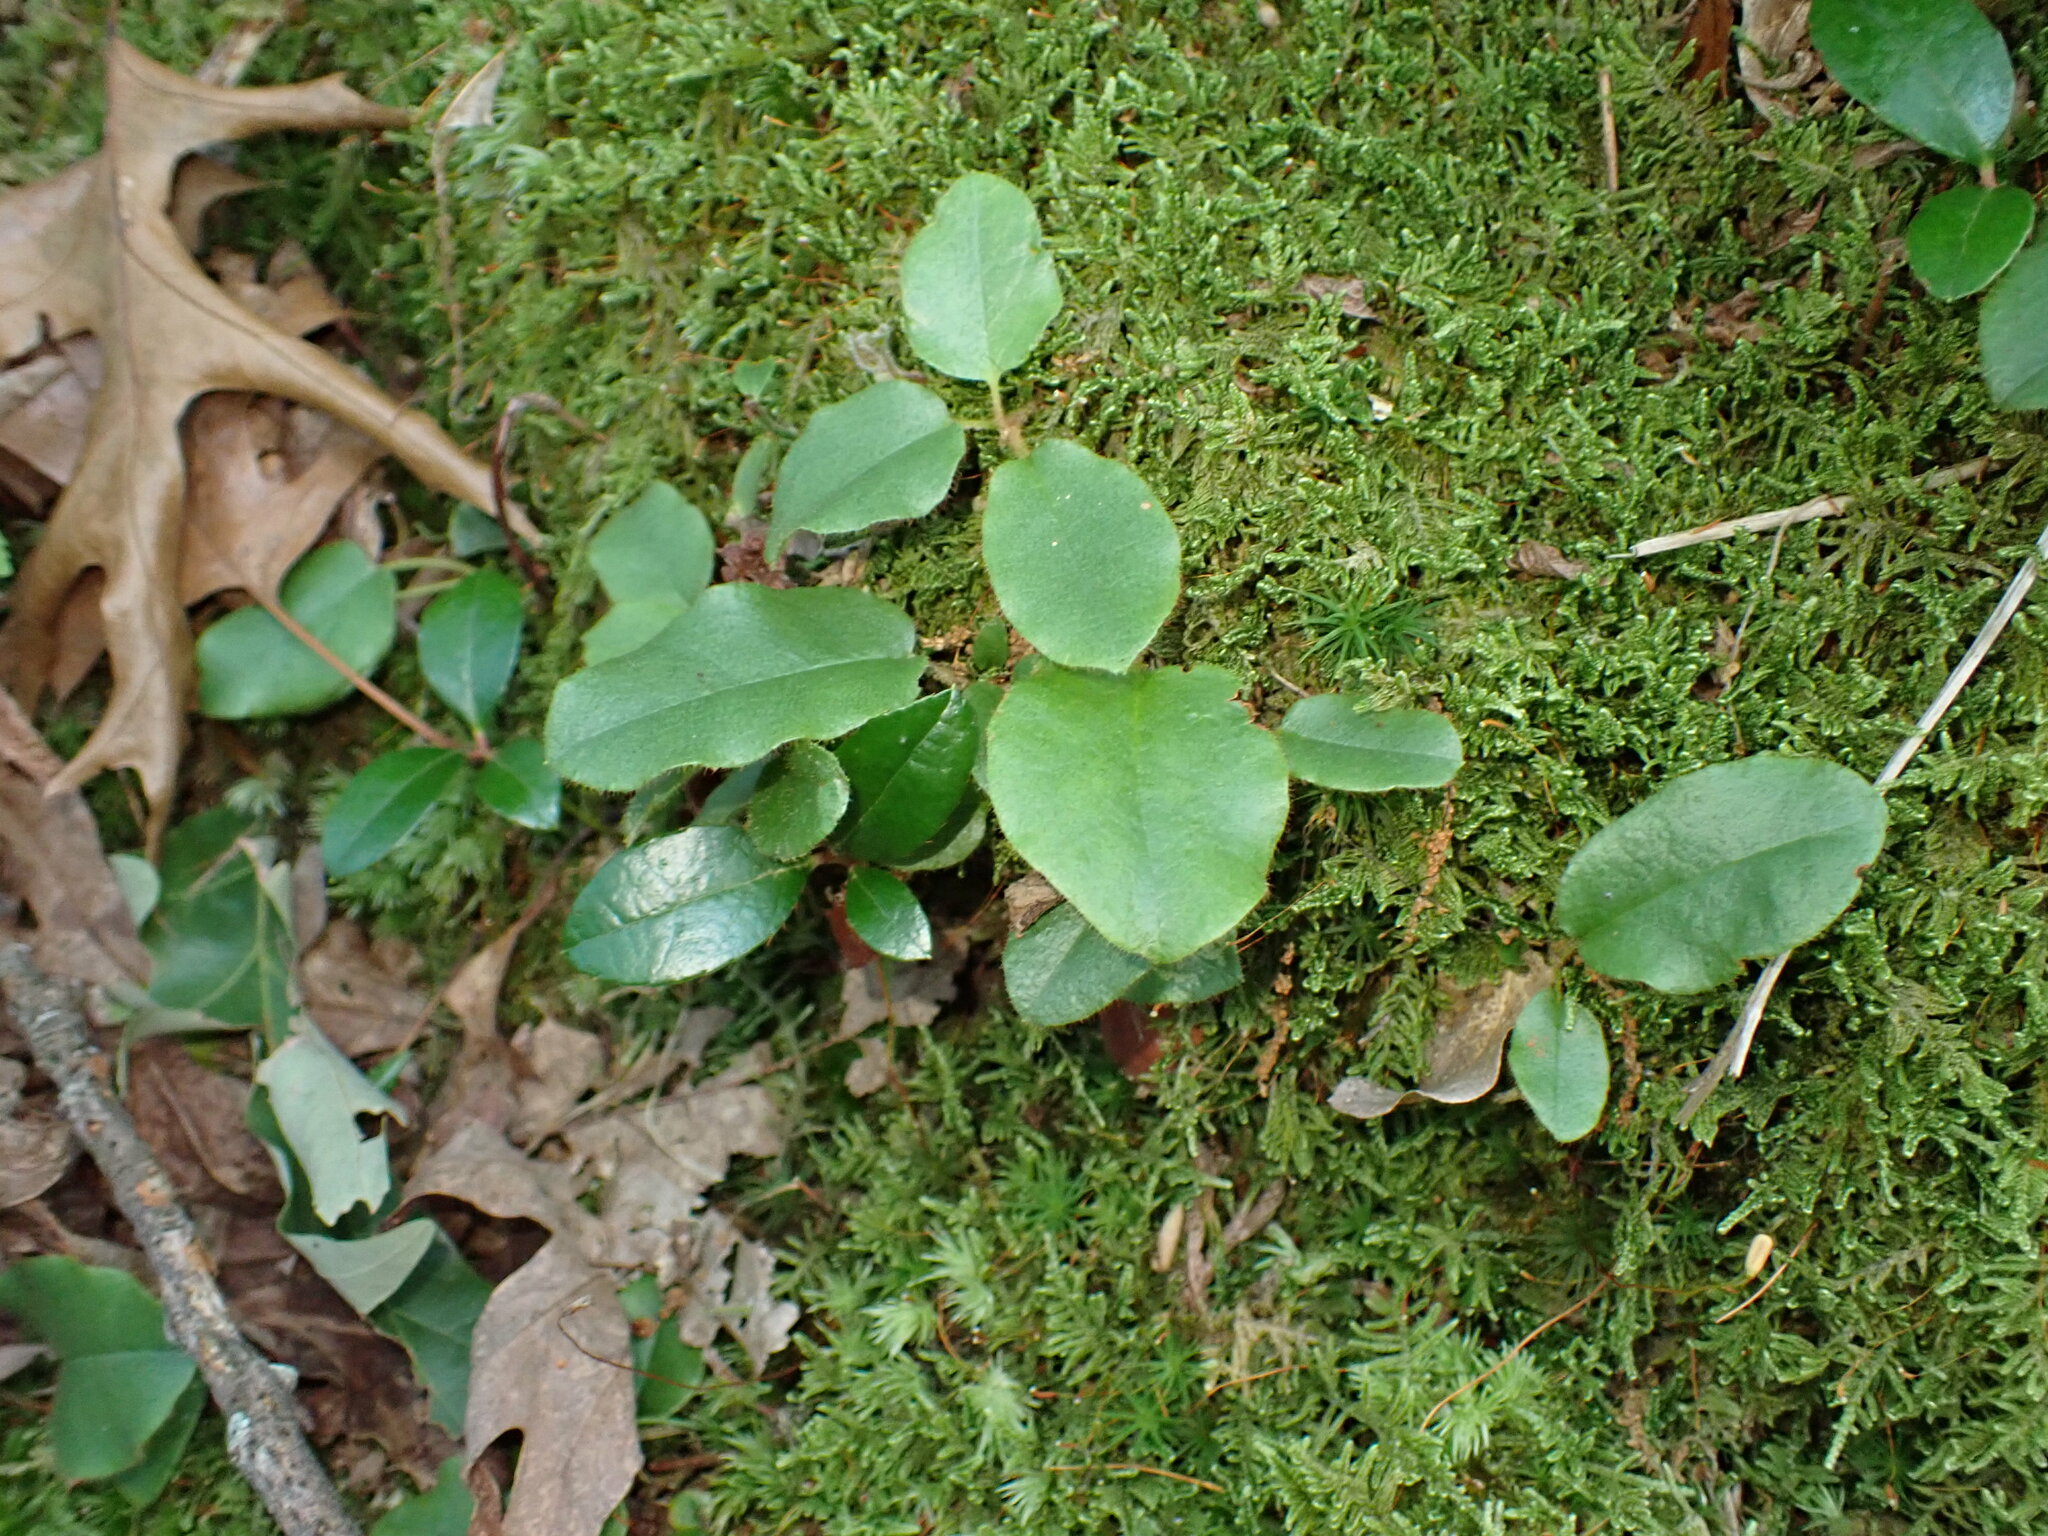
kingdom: Plantae
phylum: Tracheophyta
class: Magnoliopsida
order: Ericales
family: Ericaceae
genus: Epigaea
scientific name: Epigaea repens
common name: Gravelroot
